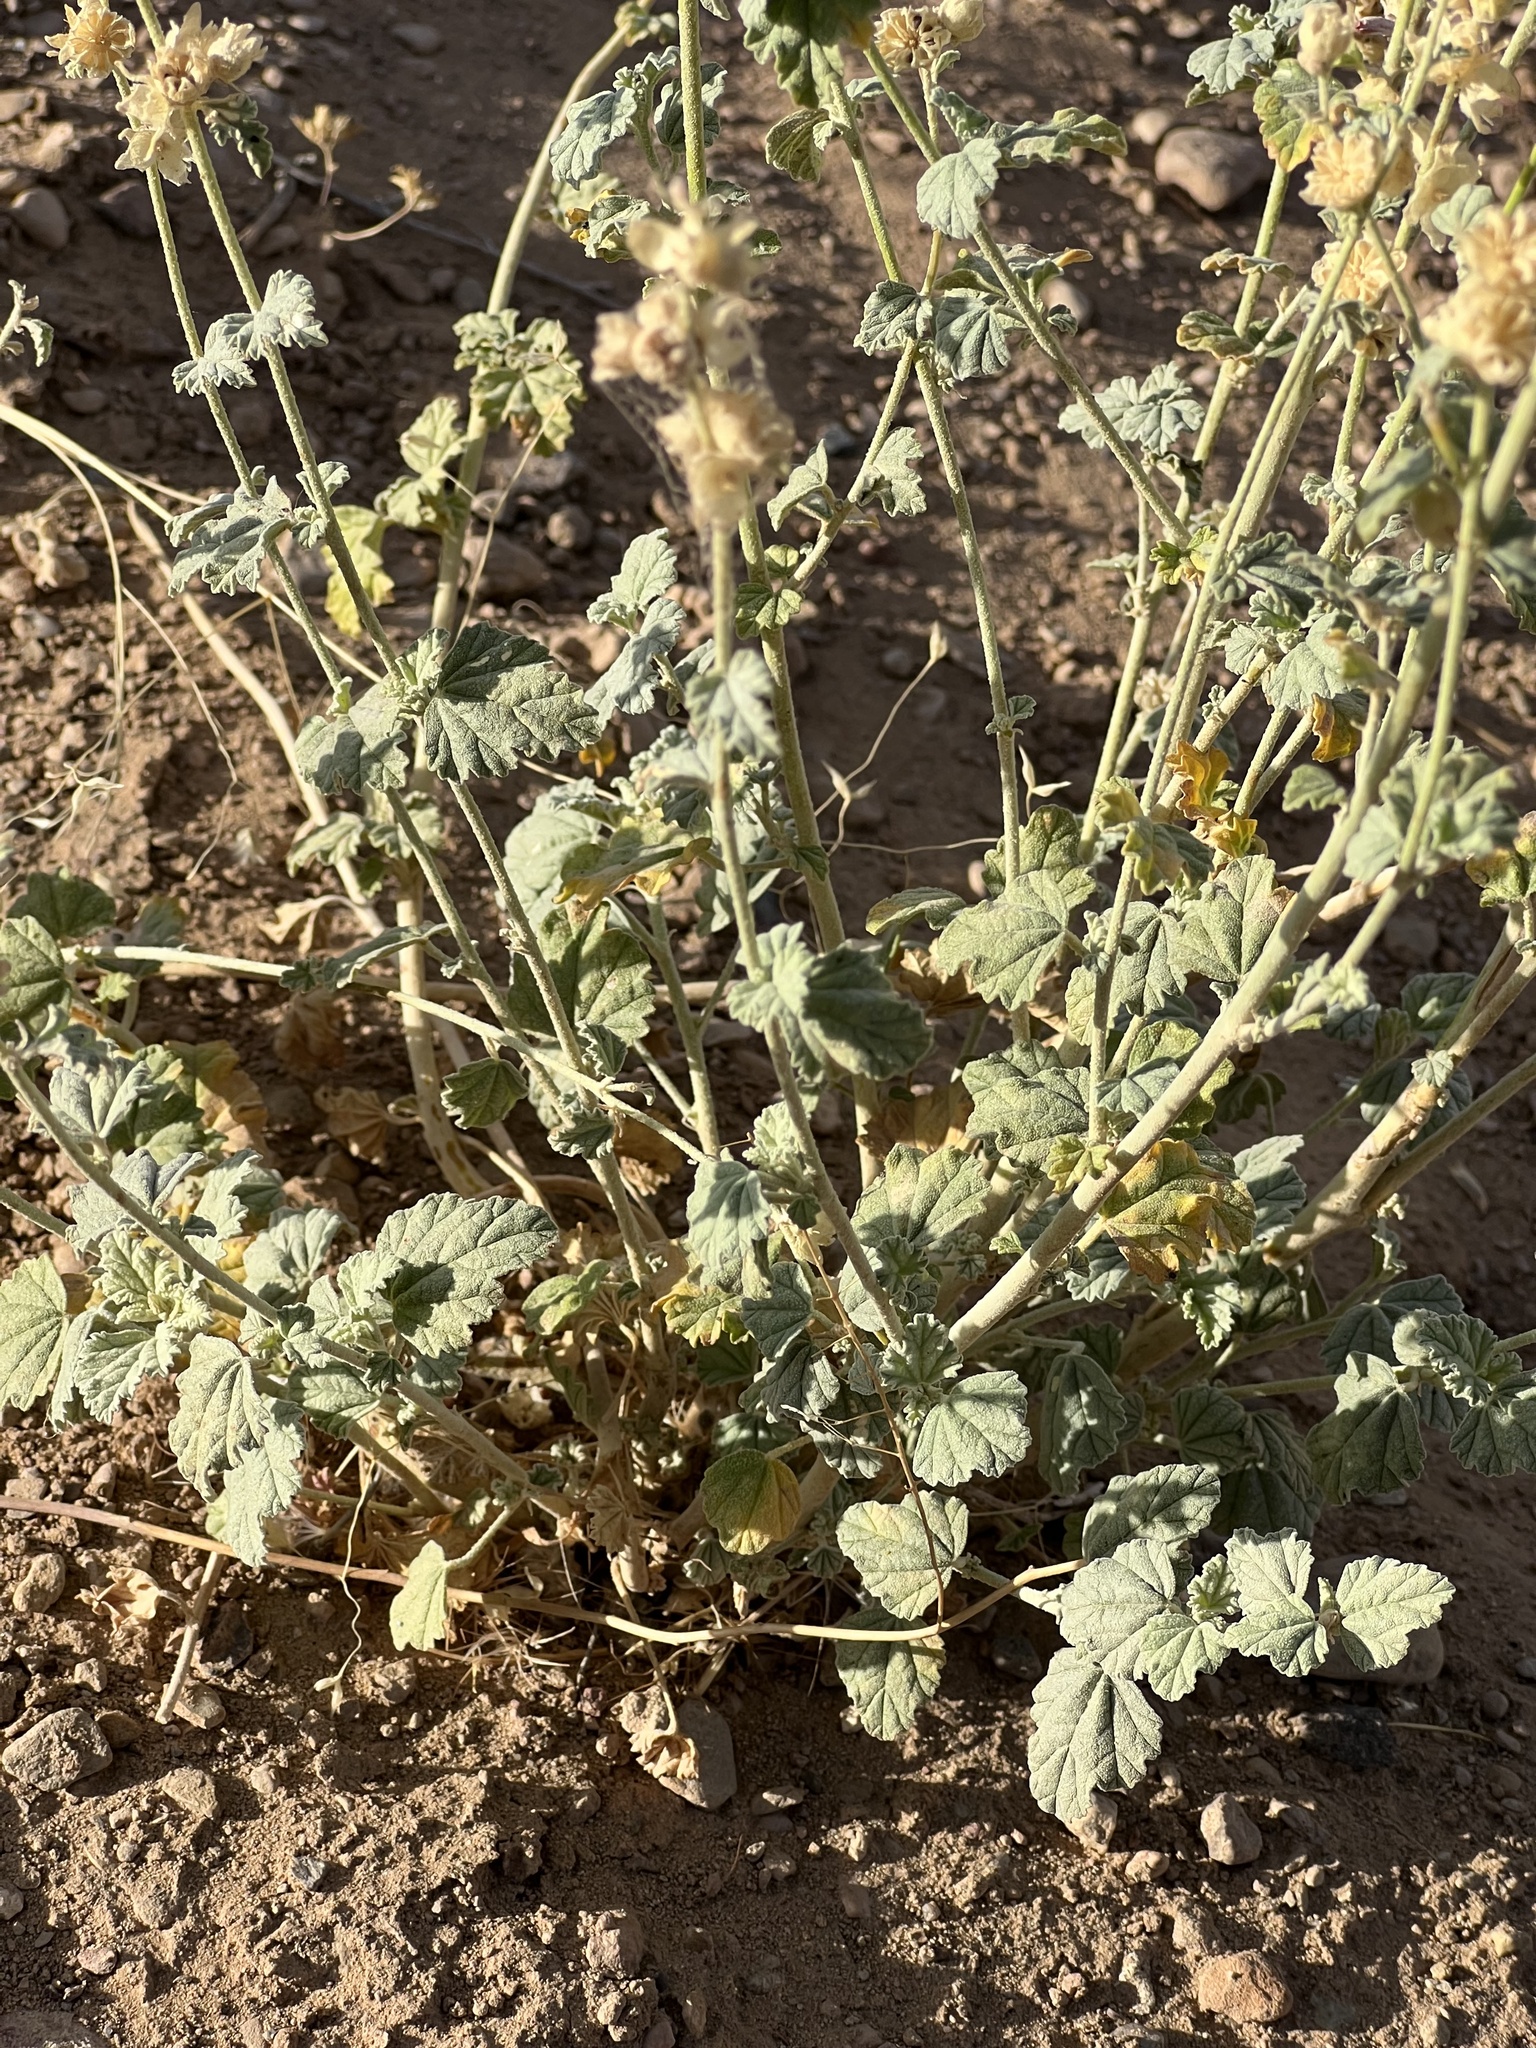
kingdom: Plantae
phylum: Tracheophyta
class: Magnoliopsida
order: Malvales
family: Malvaceae
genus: Sphaeralcea
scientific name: Sphaeralcea parvifolia
